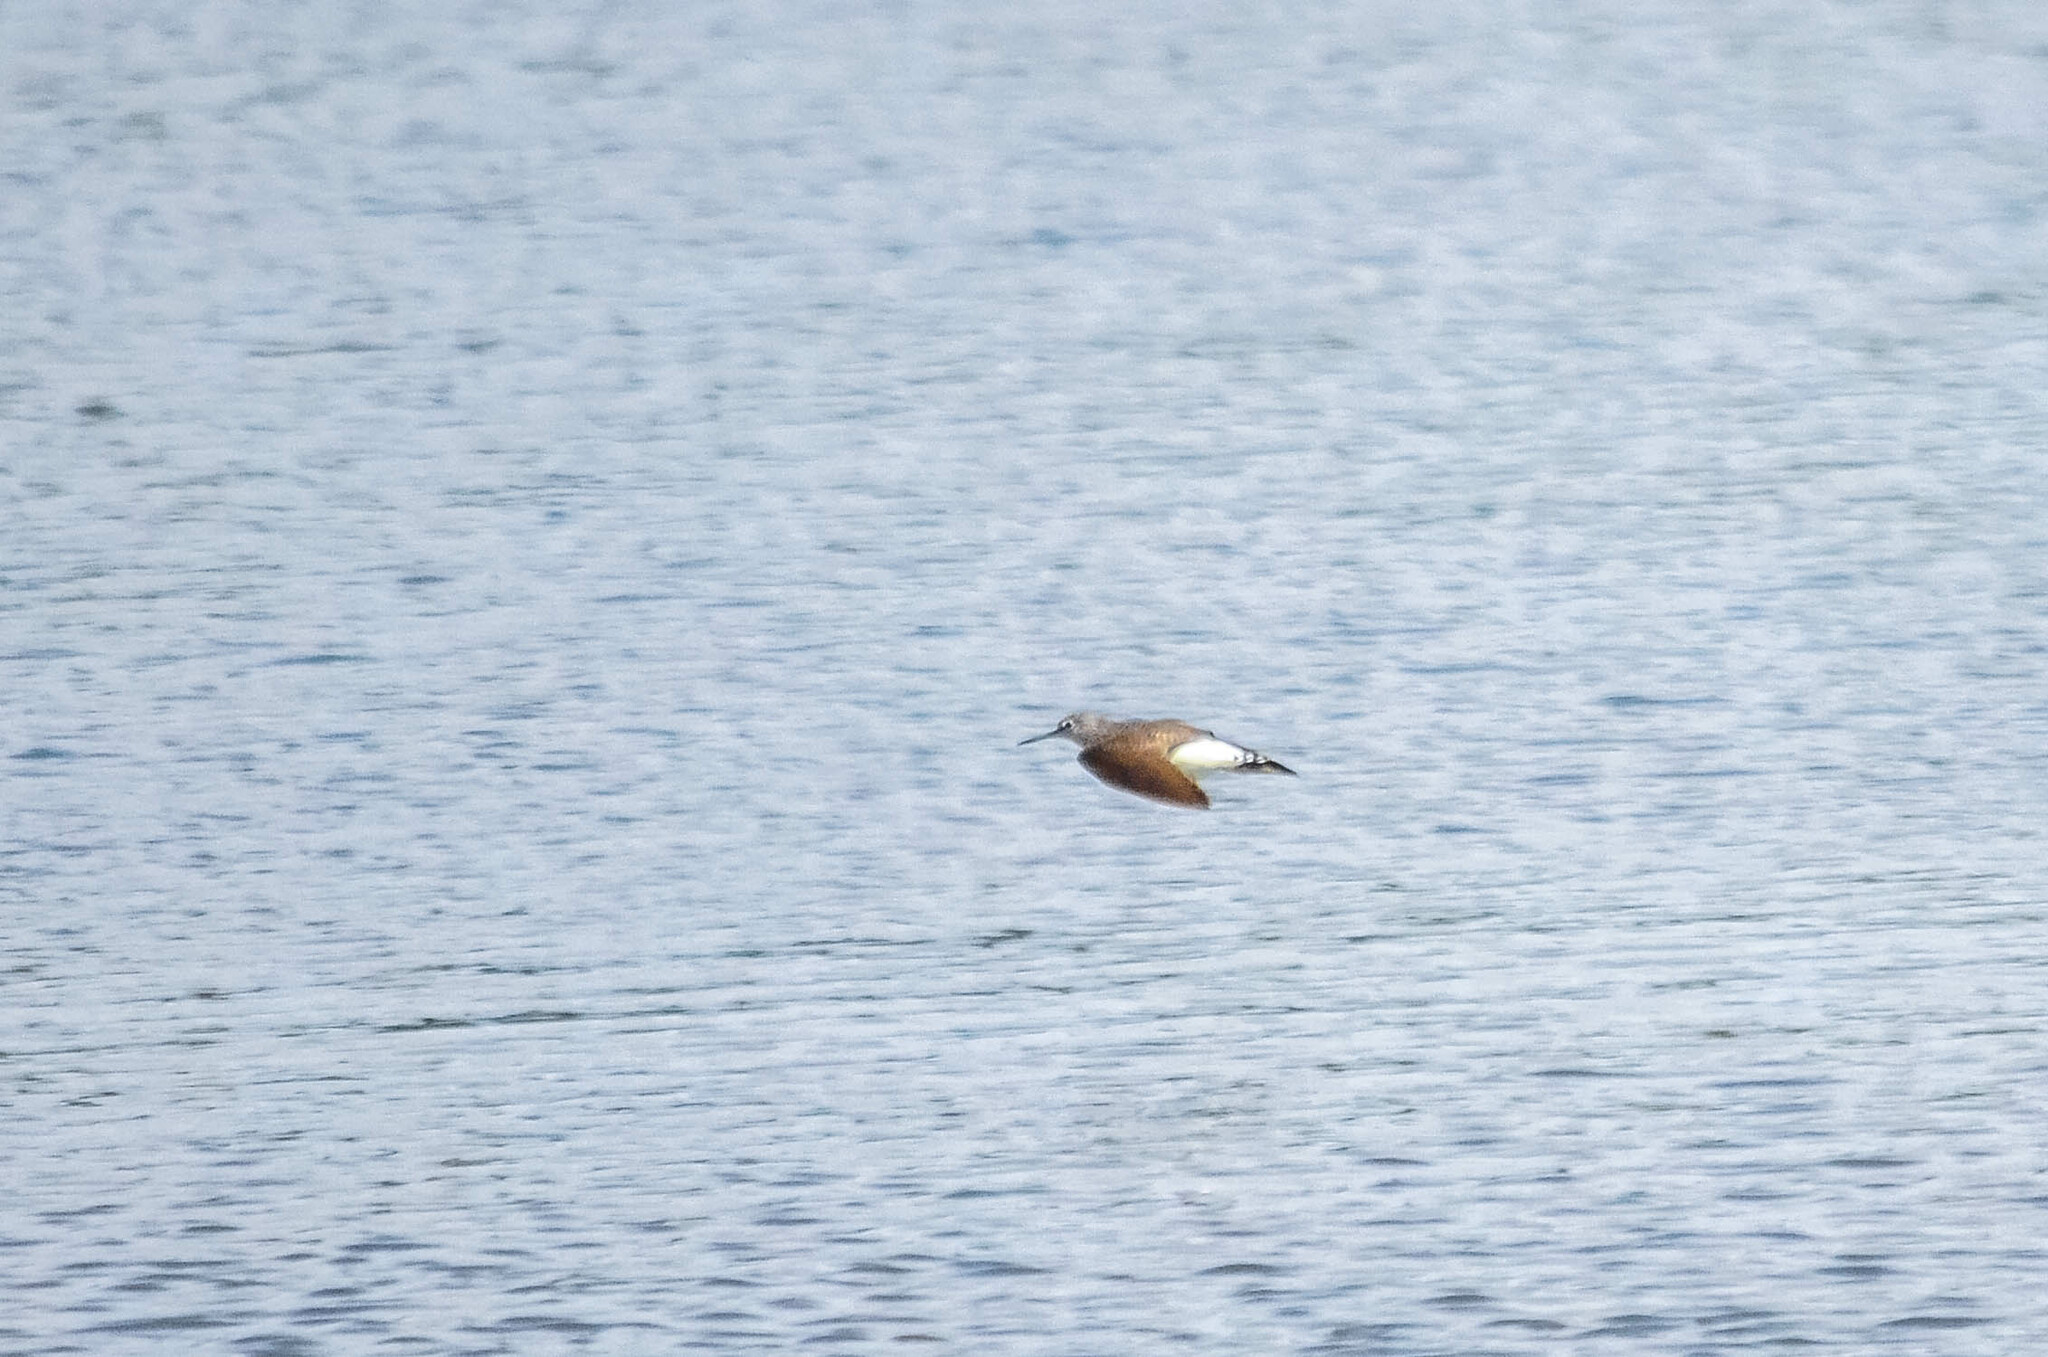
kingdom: Animalia
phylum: Chordata
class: Aves
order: Charadriiformes
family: Scolopacidae
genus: Tringa
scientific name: Tringa ochropus
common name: Green sandpiper
